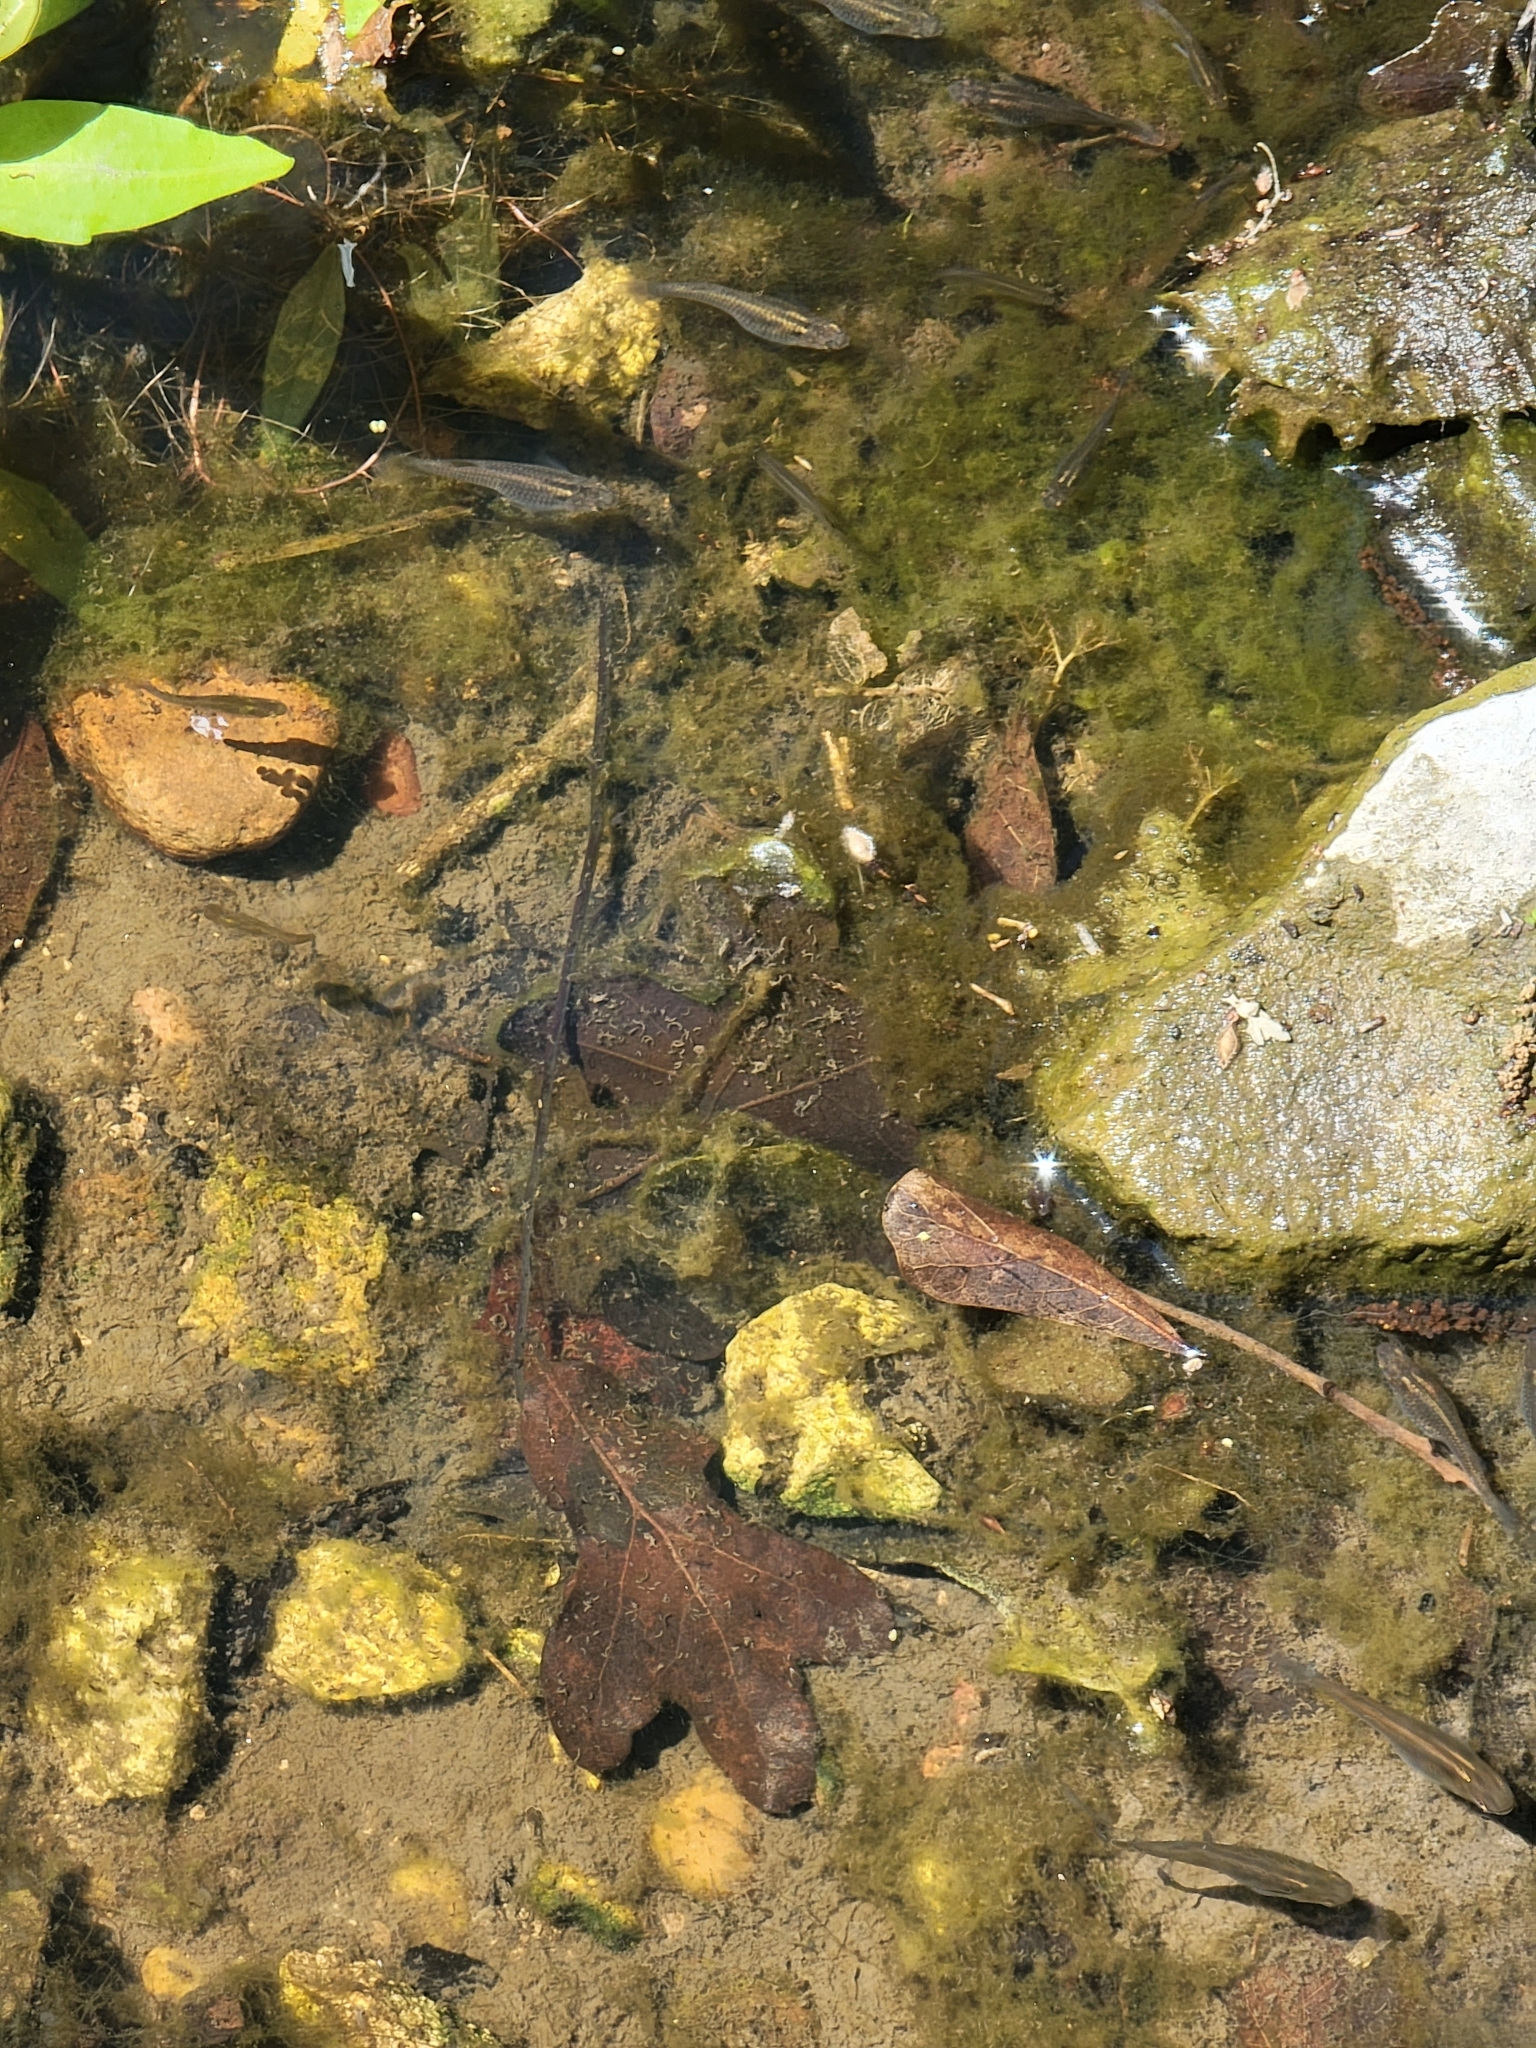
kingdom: Animalia
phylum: Chordata
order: Cyprinodontiformes
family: Poeciliidae
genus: Gambusia
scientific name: Gambusia affinis
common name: Mosquitofish
